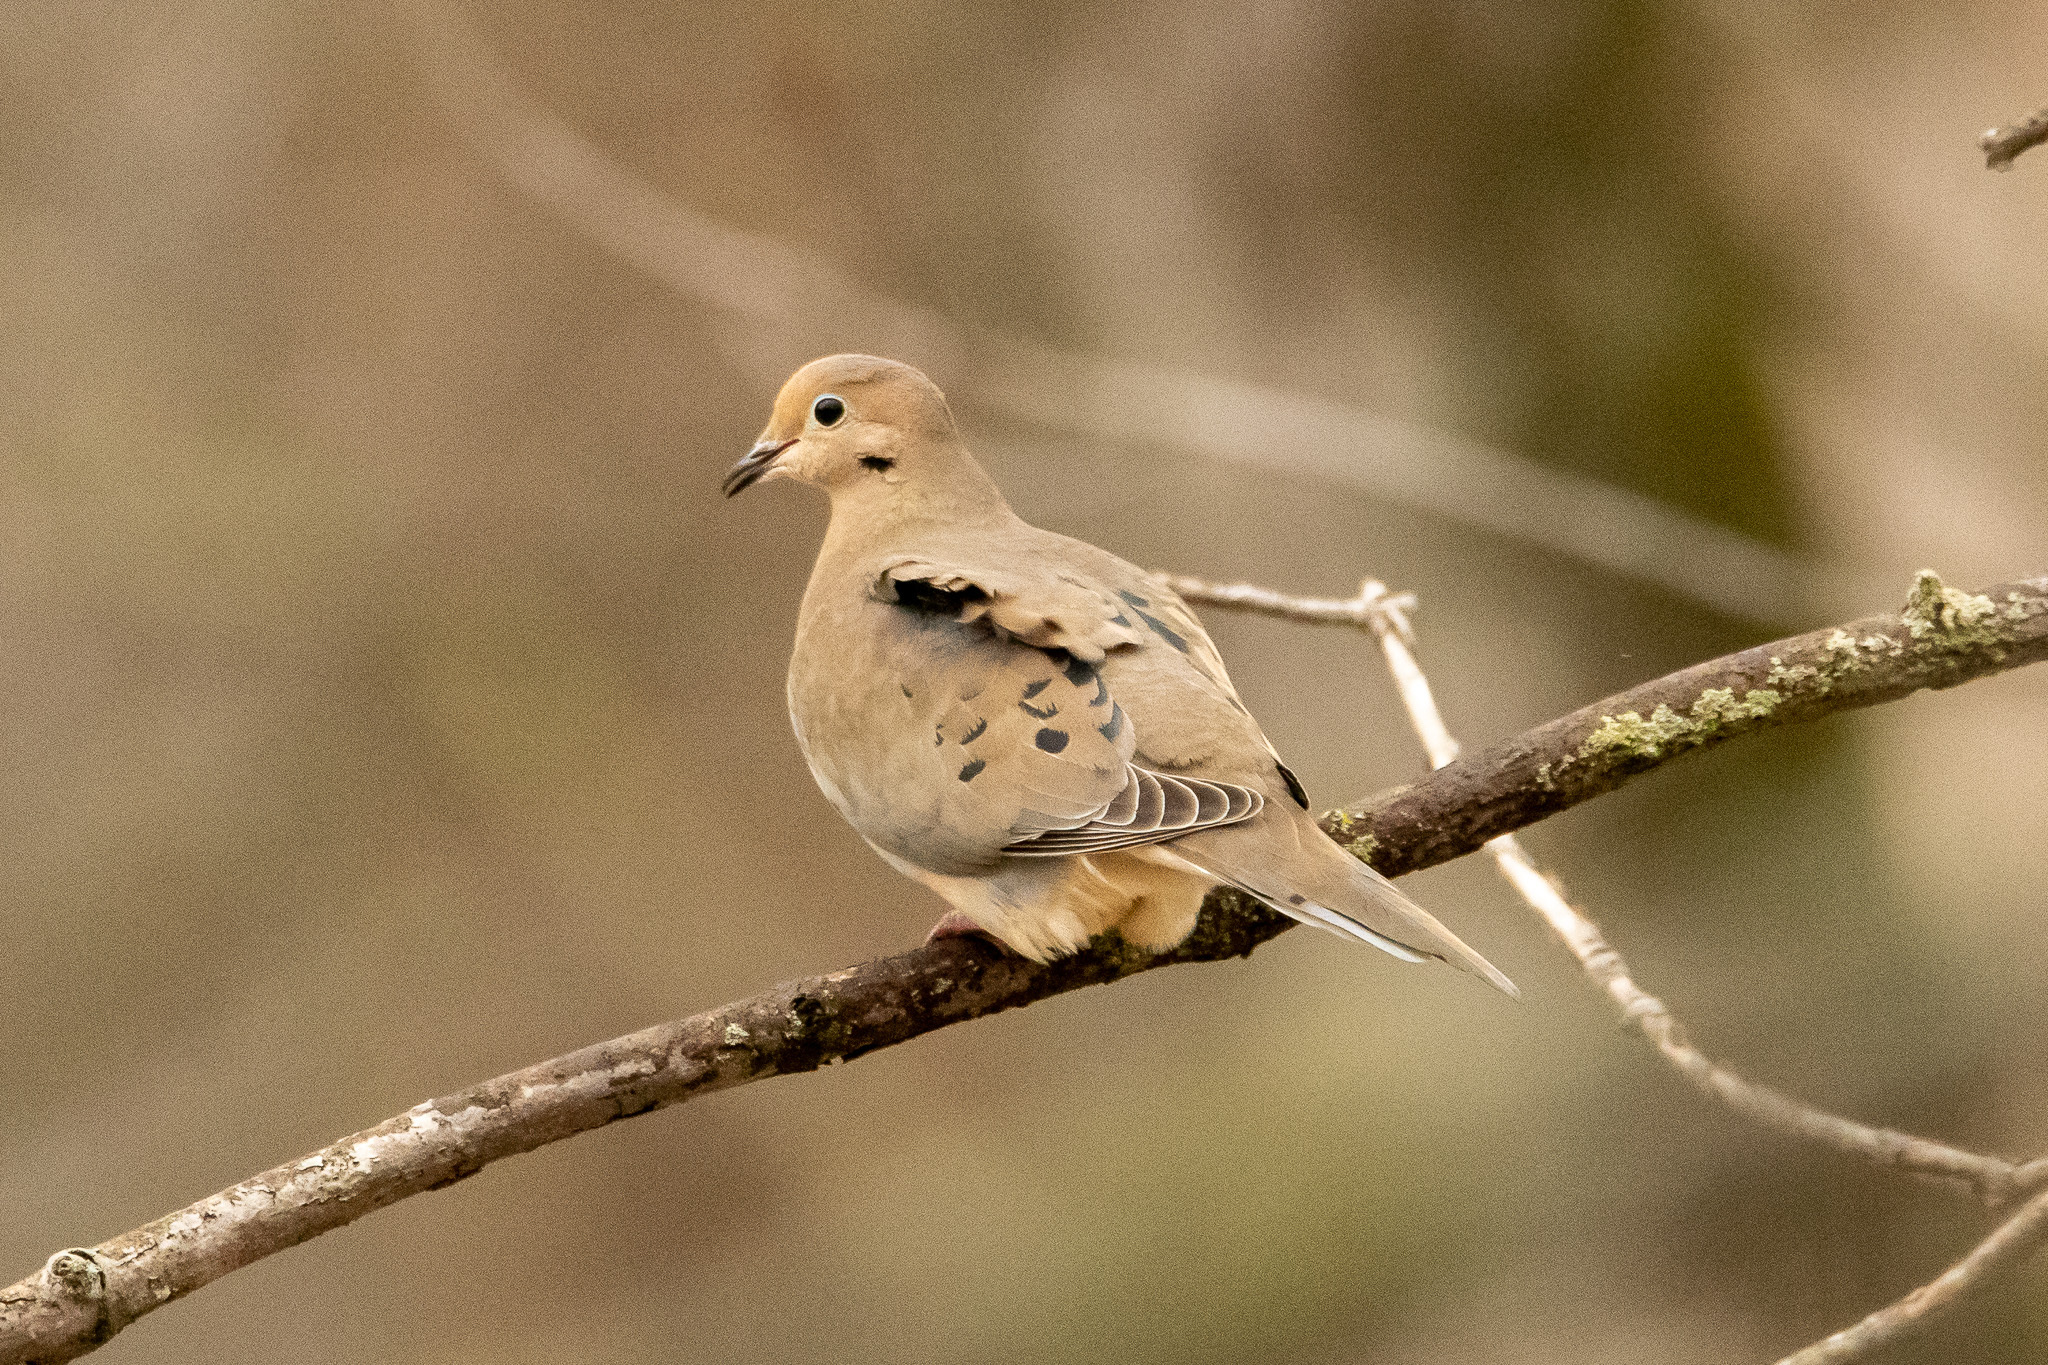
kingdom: Animalia
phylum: Chordata
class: Aves
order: Columbiformes
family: Columbidae
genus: Zenaida
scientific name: Zenaida macroura
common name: Mourning dove
